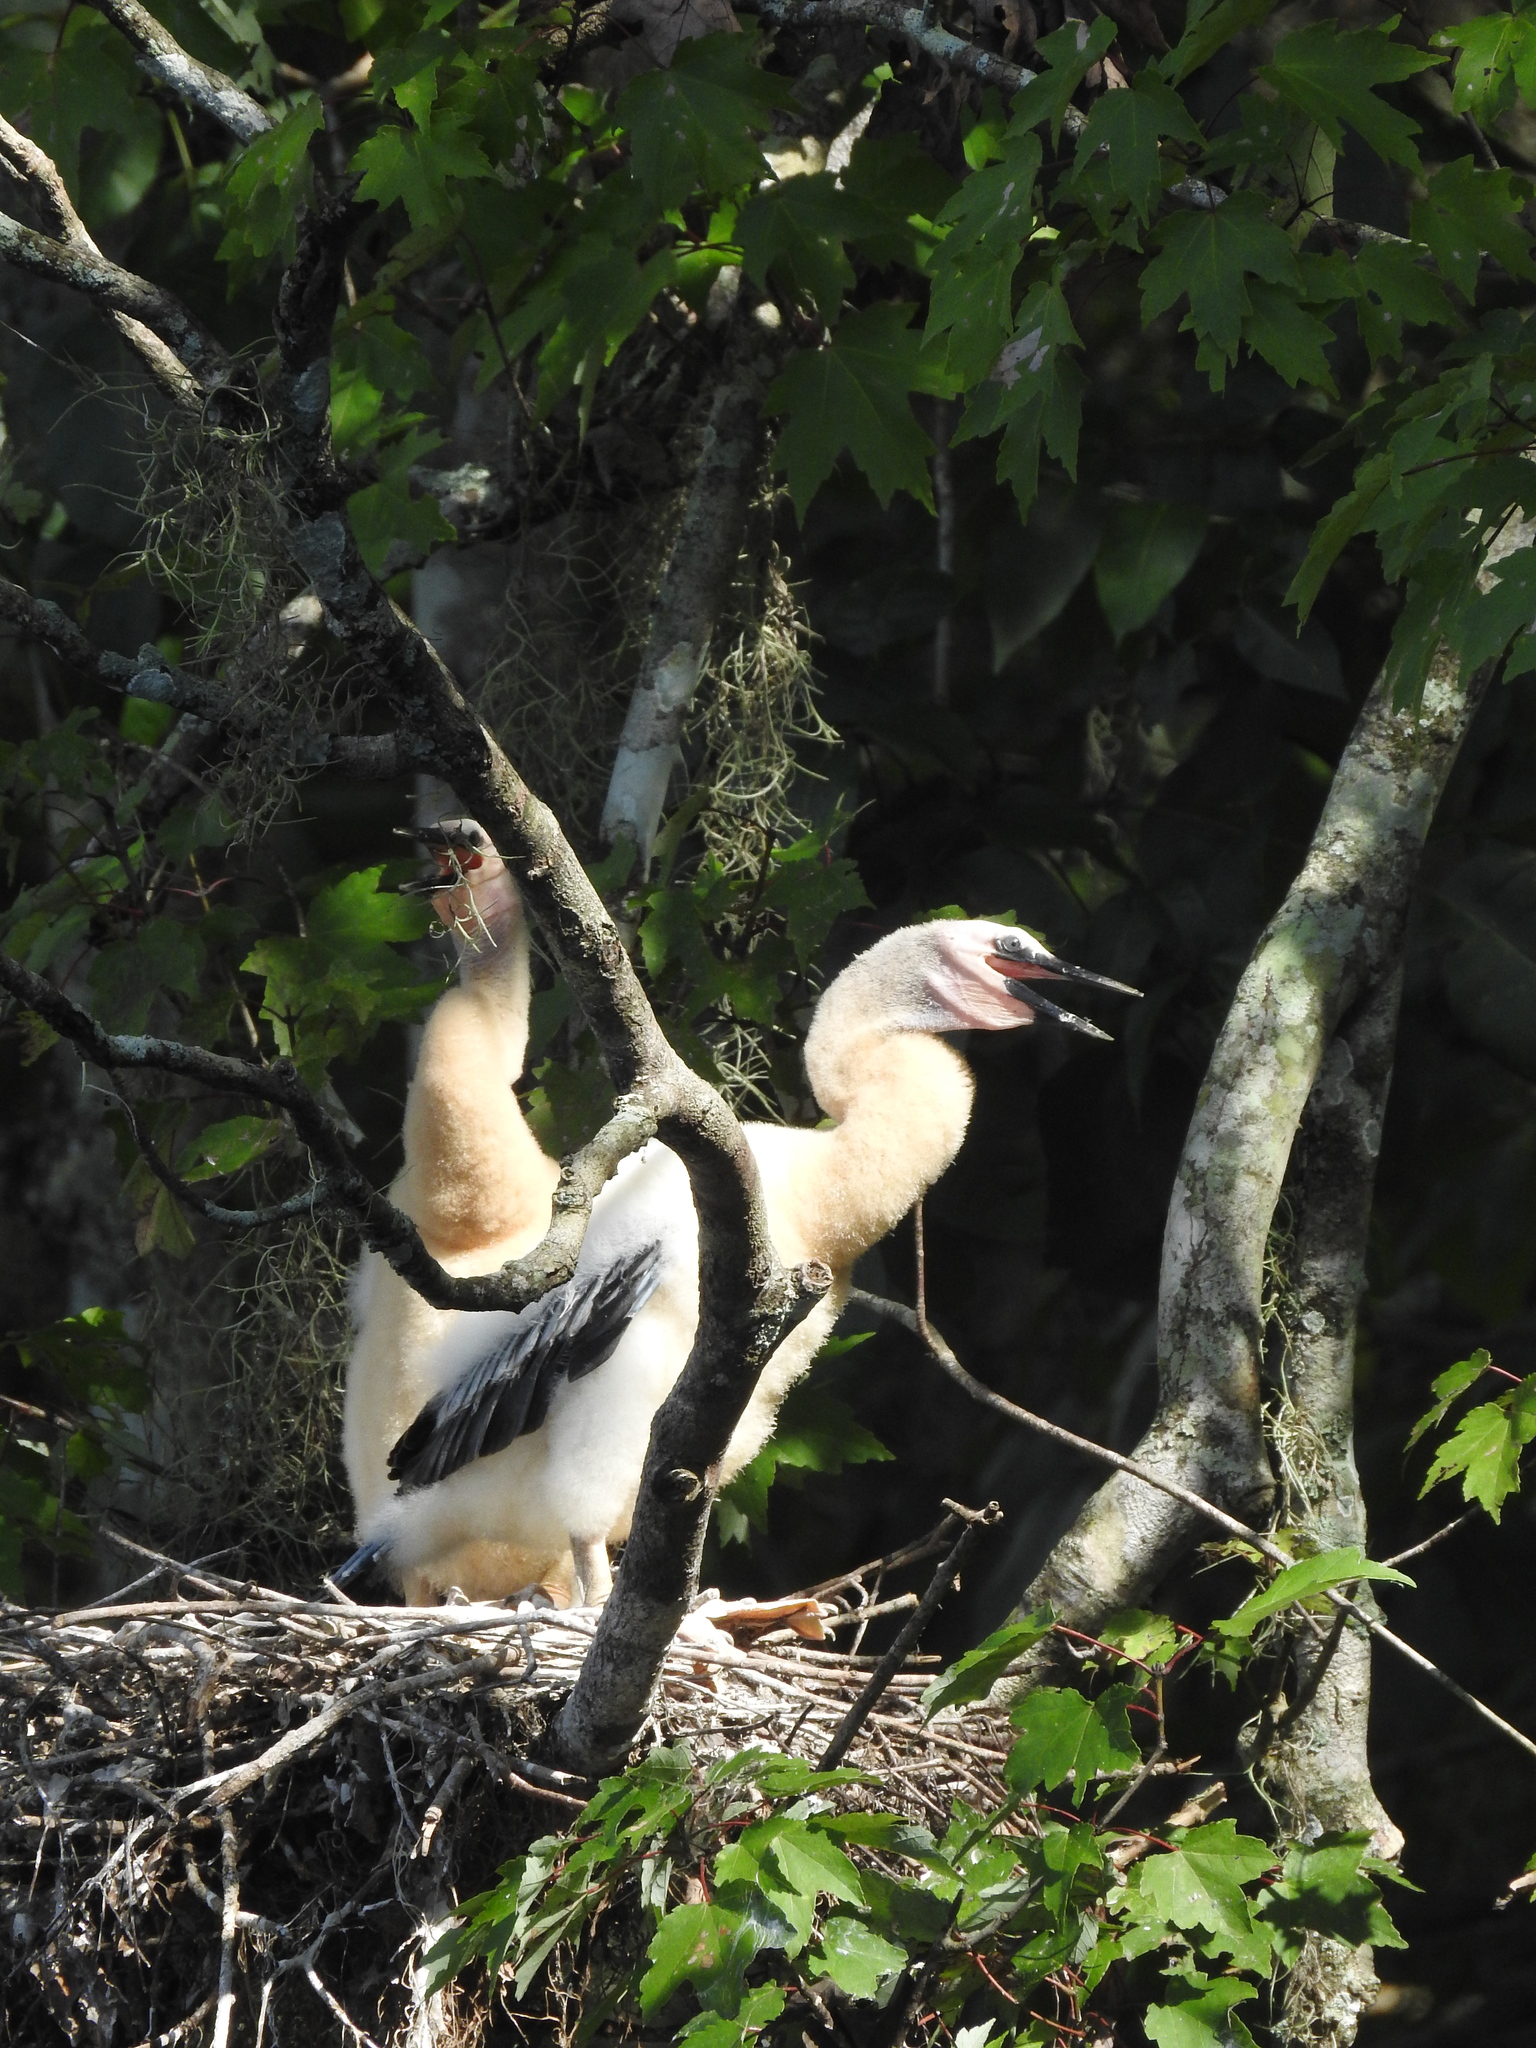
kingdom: Animalia
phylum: Chordata
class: Aves
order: Suliformes
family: Anhingidae
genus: Anhinga
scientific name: Anhinga anhinga
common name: Anhinga
